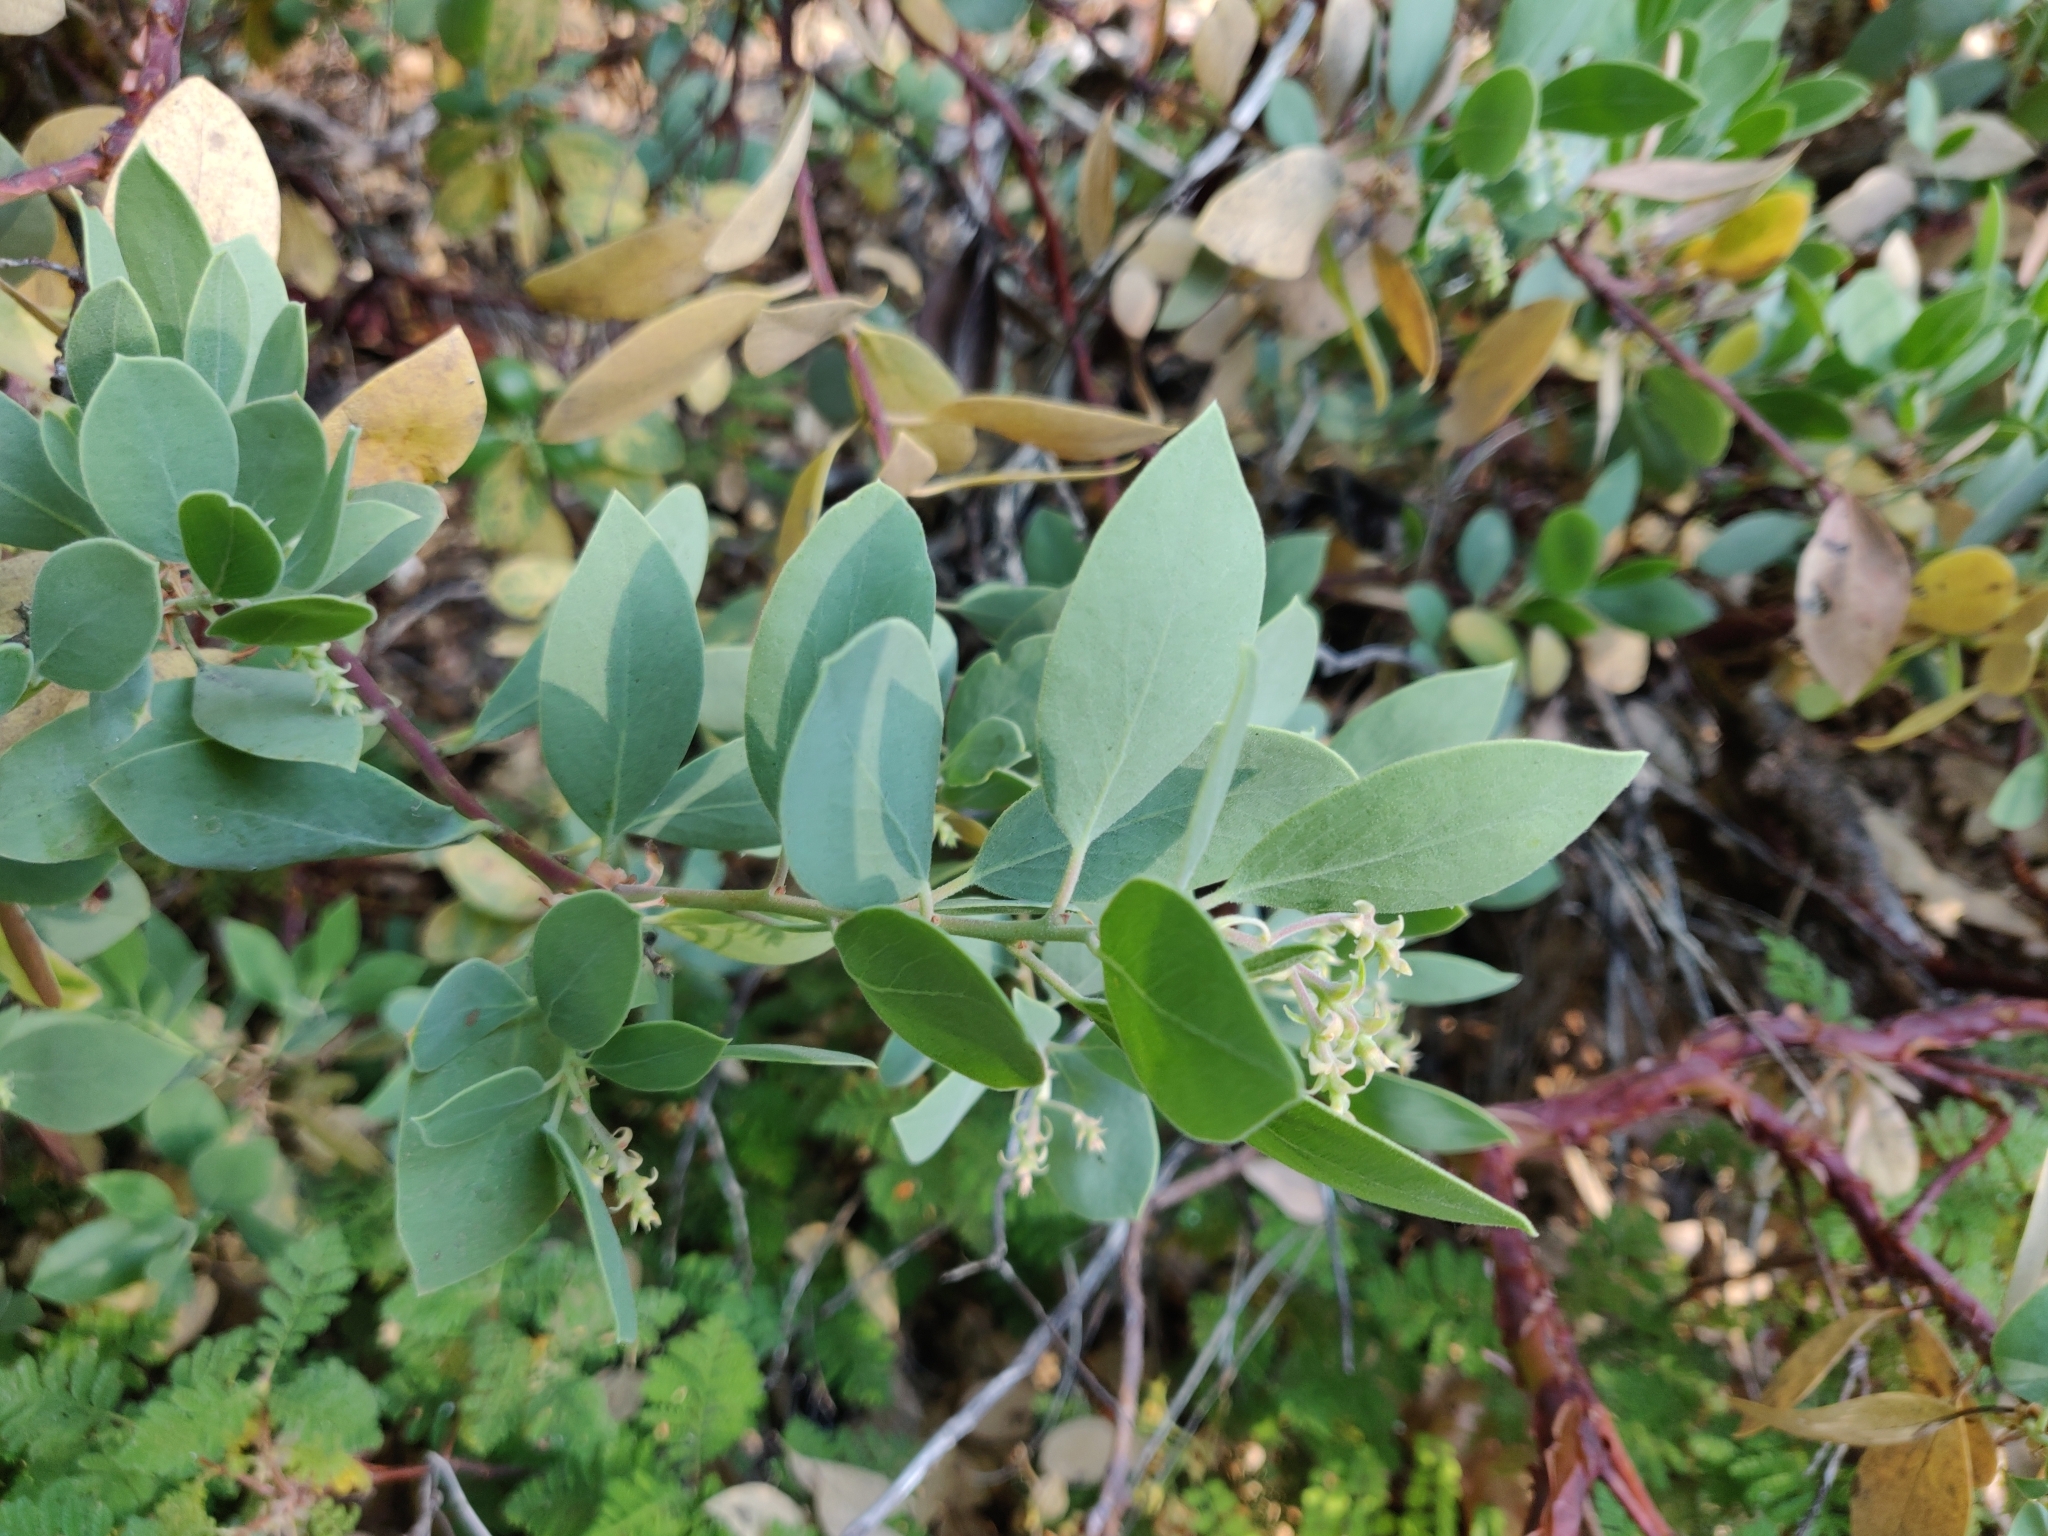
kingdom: Plantae
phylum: Tracheophyta
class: Magnoliopsida
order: Ericales
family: Ericaceae
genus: Arctostaphylos
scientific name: Arctostaphylos mewukka
